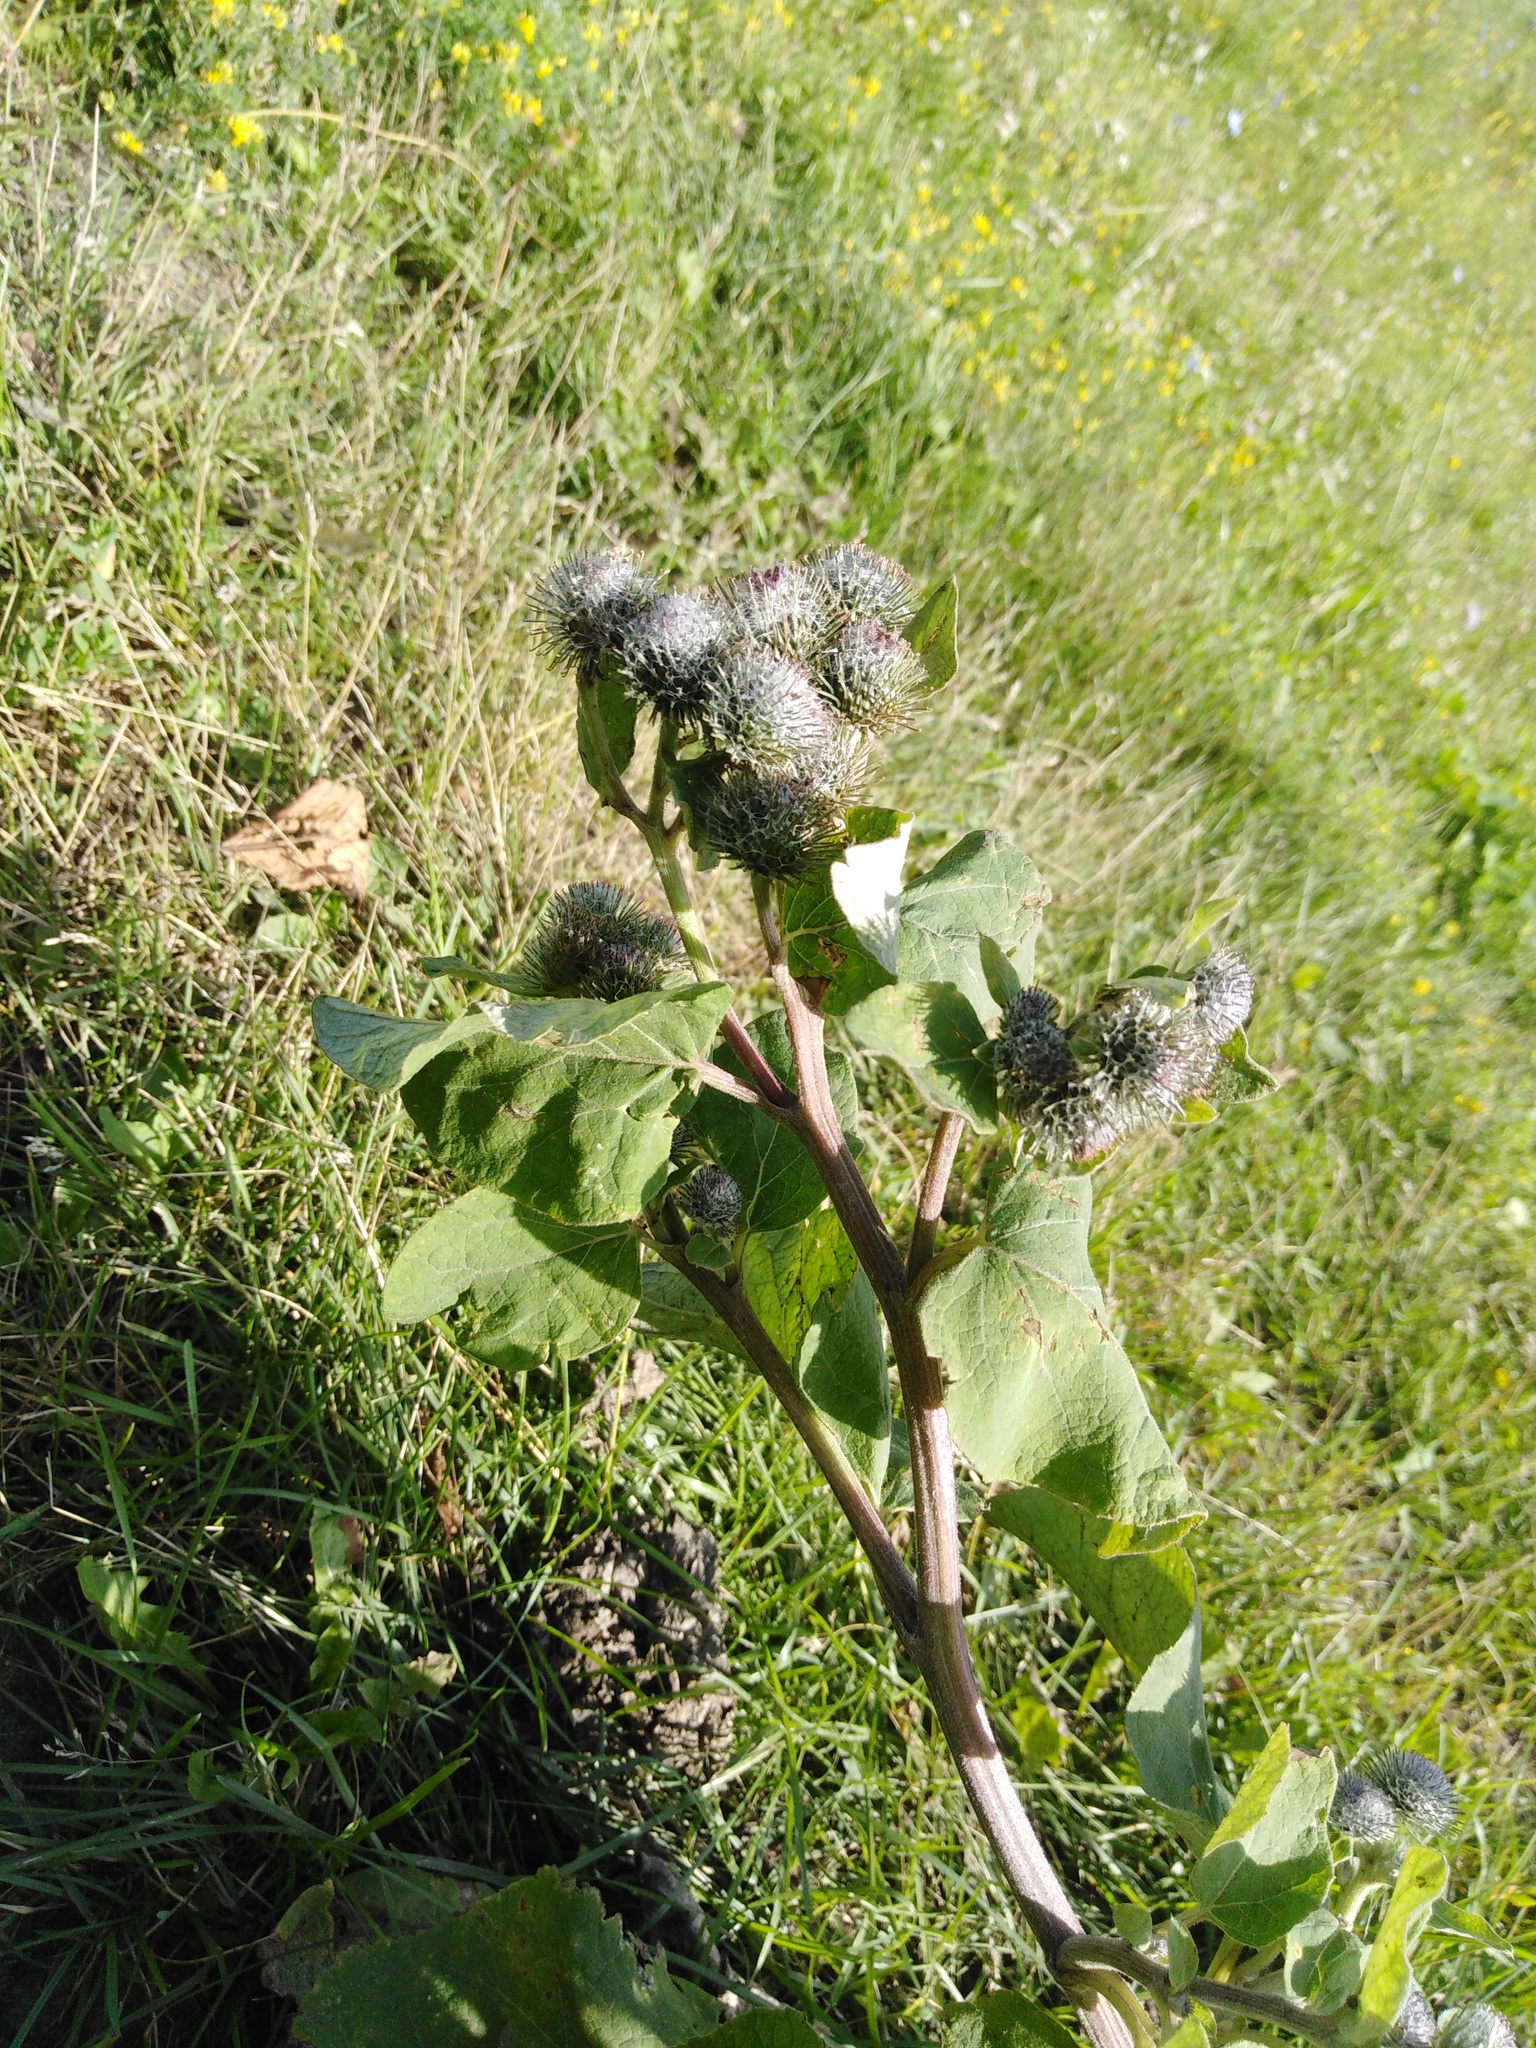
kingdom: Plantae
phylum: Tracheophyta
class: Magnoliopsida
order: Asterales
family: Asteraceae
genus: Arctium
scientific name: Arctium tomentosum
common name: Woolly burdock
